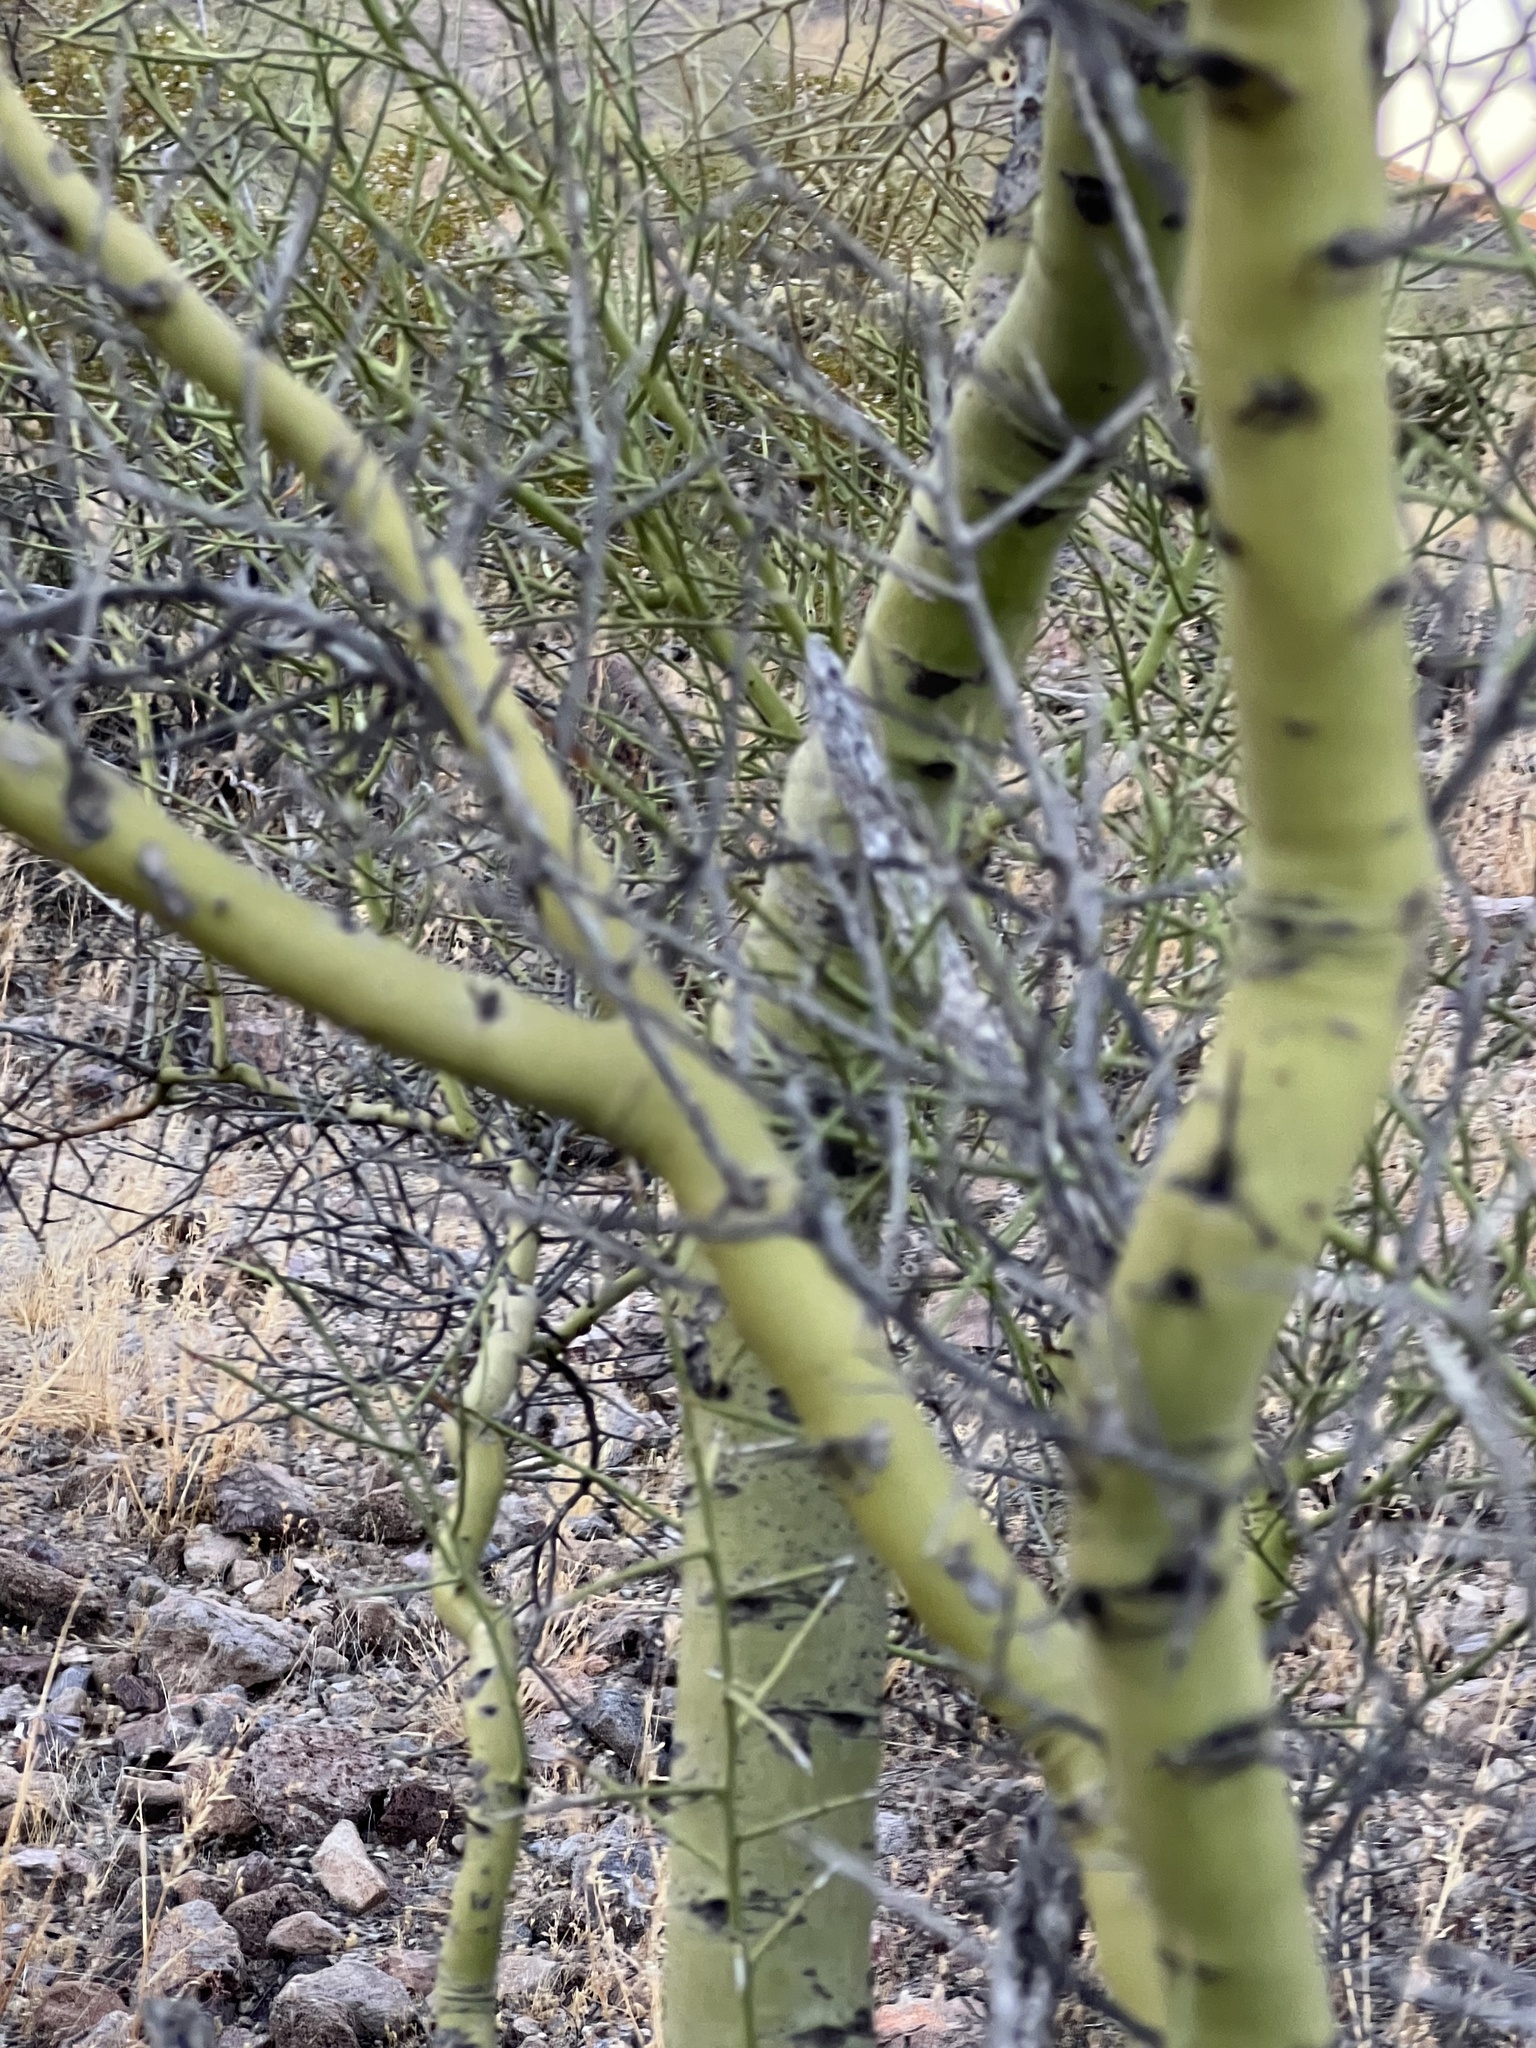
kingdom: Plantae
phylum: Tracheophyta
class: Magnoliopsida
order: Fabales
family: Fabaceae
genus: Parkinsonia
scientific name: Parkinsonia microphylla
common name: Yellow paloverde
